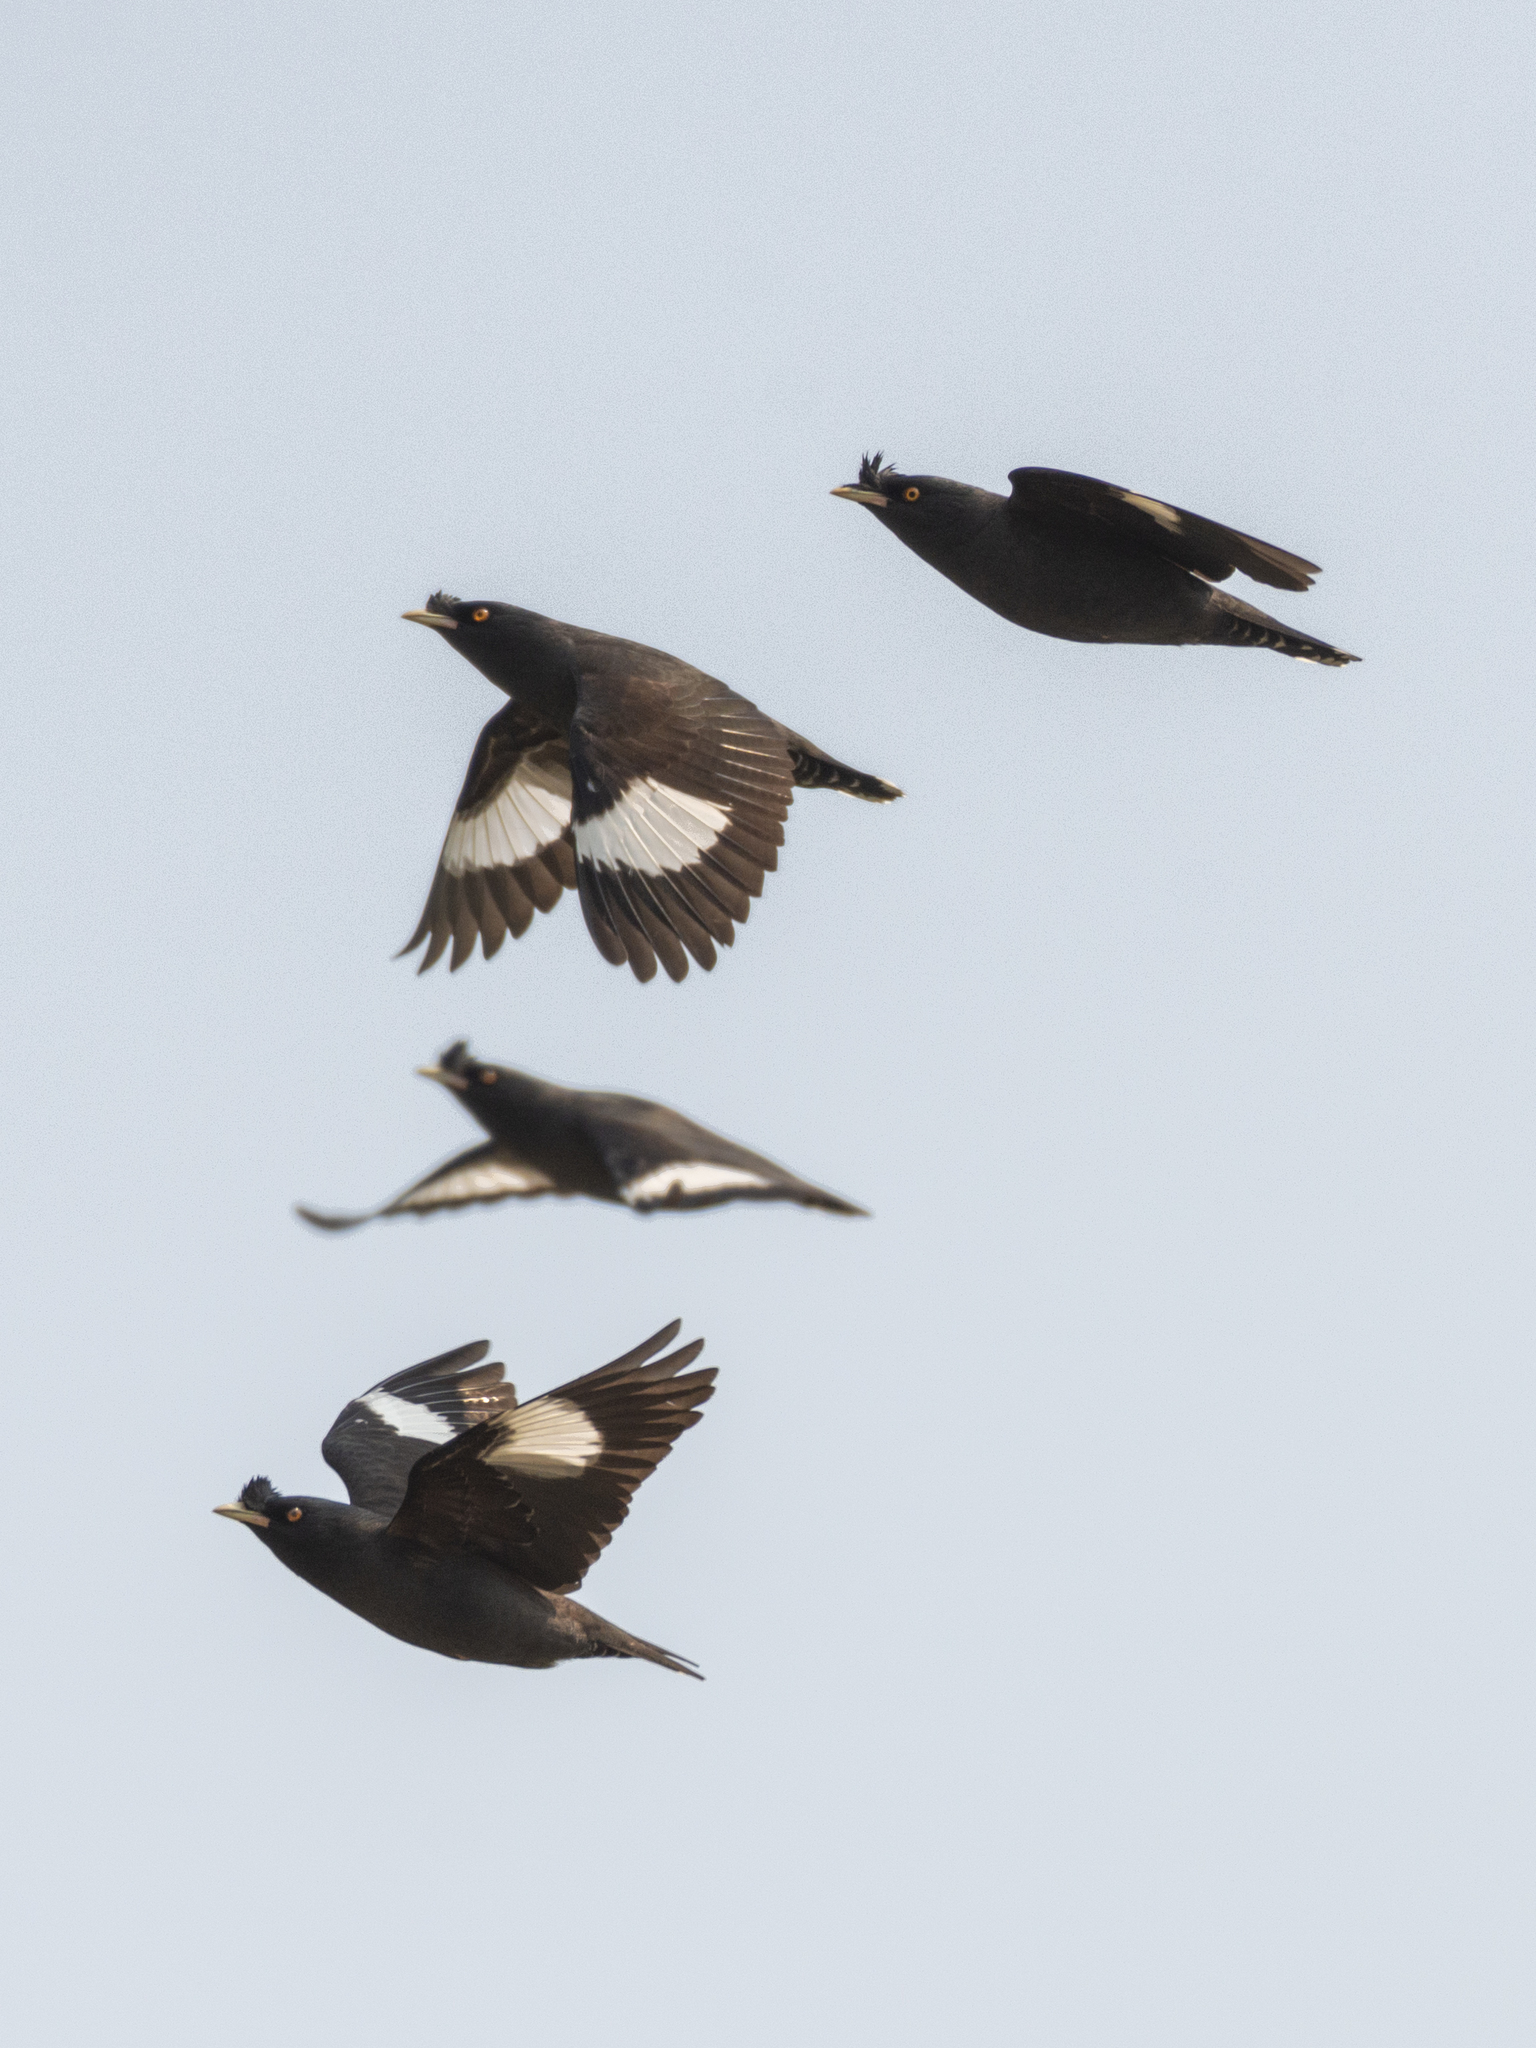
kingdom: Animalia
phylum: Chordata
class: Aves
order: Passeriformes
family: Sturnidae
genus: Acridotheres
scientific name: Acridotheres cristatellus
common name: Crested myna
